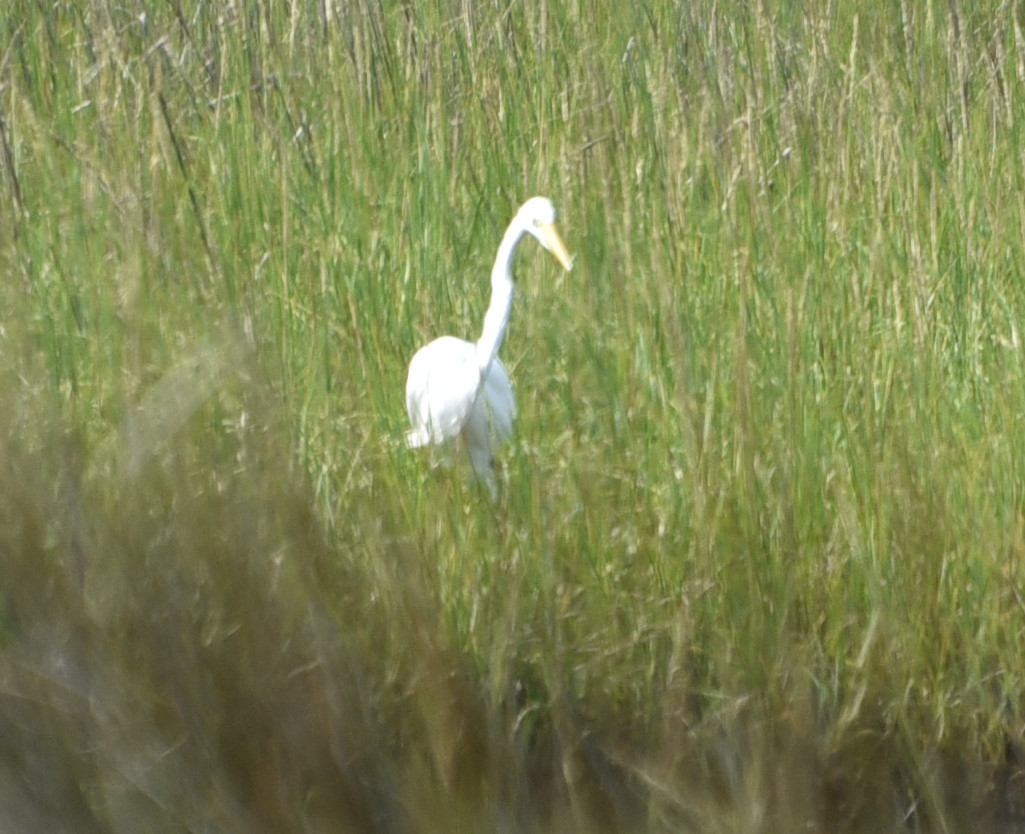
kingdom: Animalia
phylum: Chordata
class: Aves
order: Pelecaniformes
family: Ardeidae
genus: Ardea
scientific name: Ardea alba
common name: Great egret
